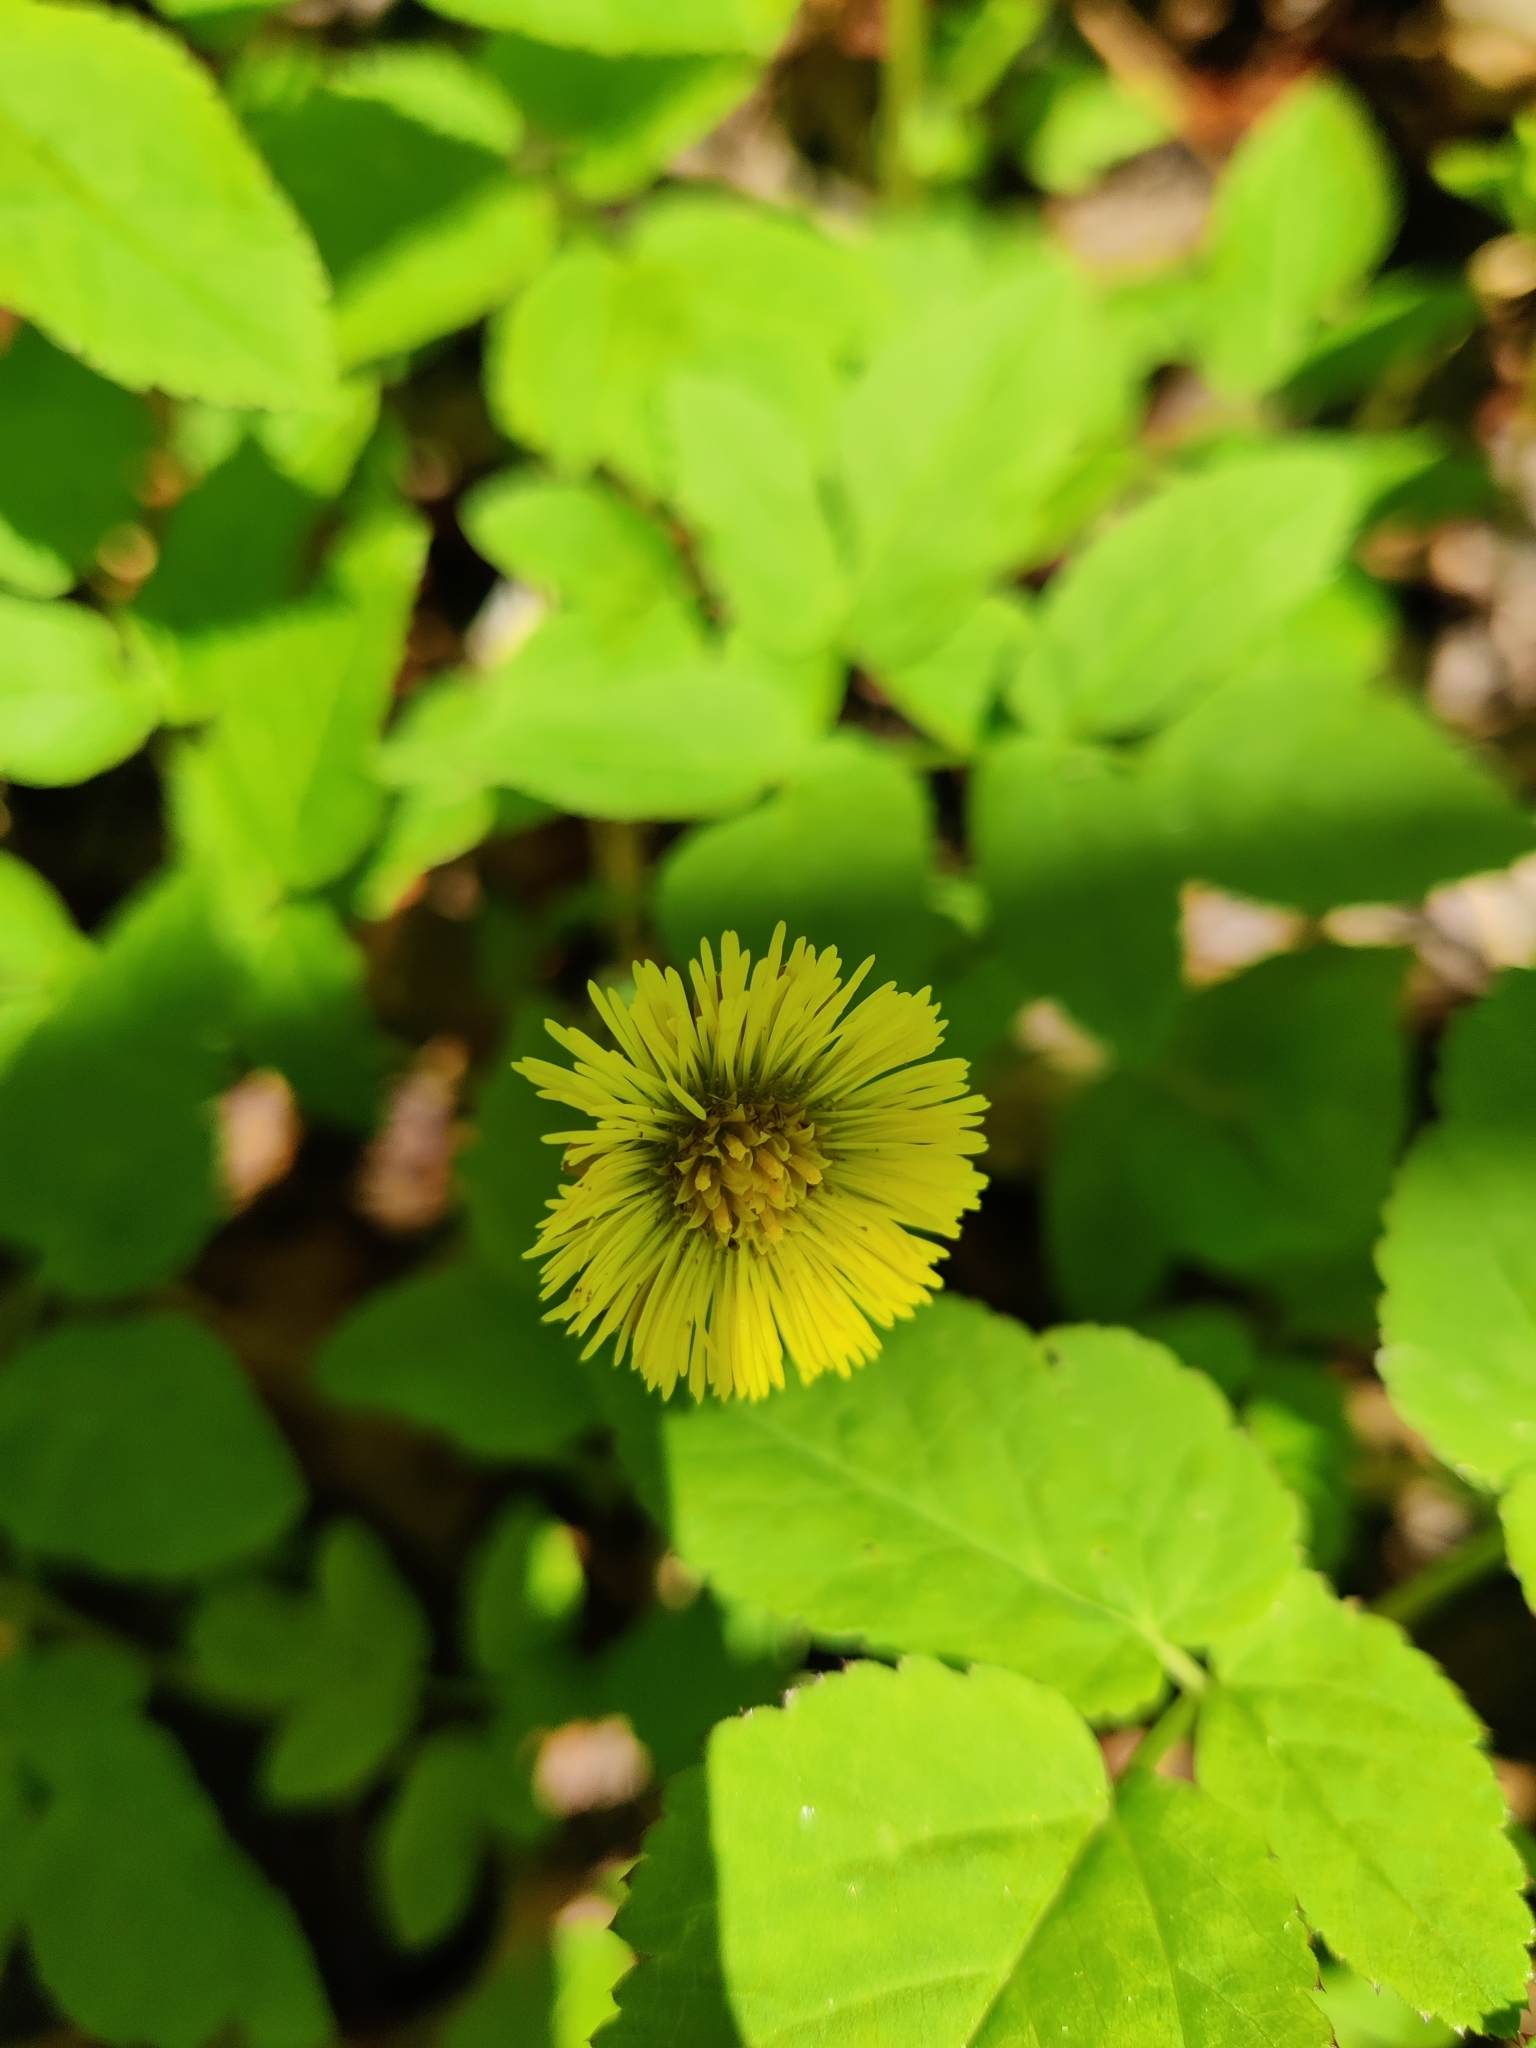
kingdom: Plantae
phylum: Tracheophyta
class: Magnoliopsida
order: Asterales
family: Asteraceae
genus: Tussilago
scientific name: Tussilago farfara
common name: Coltsfoot
